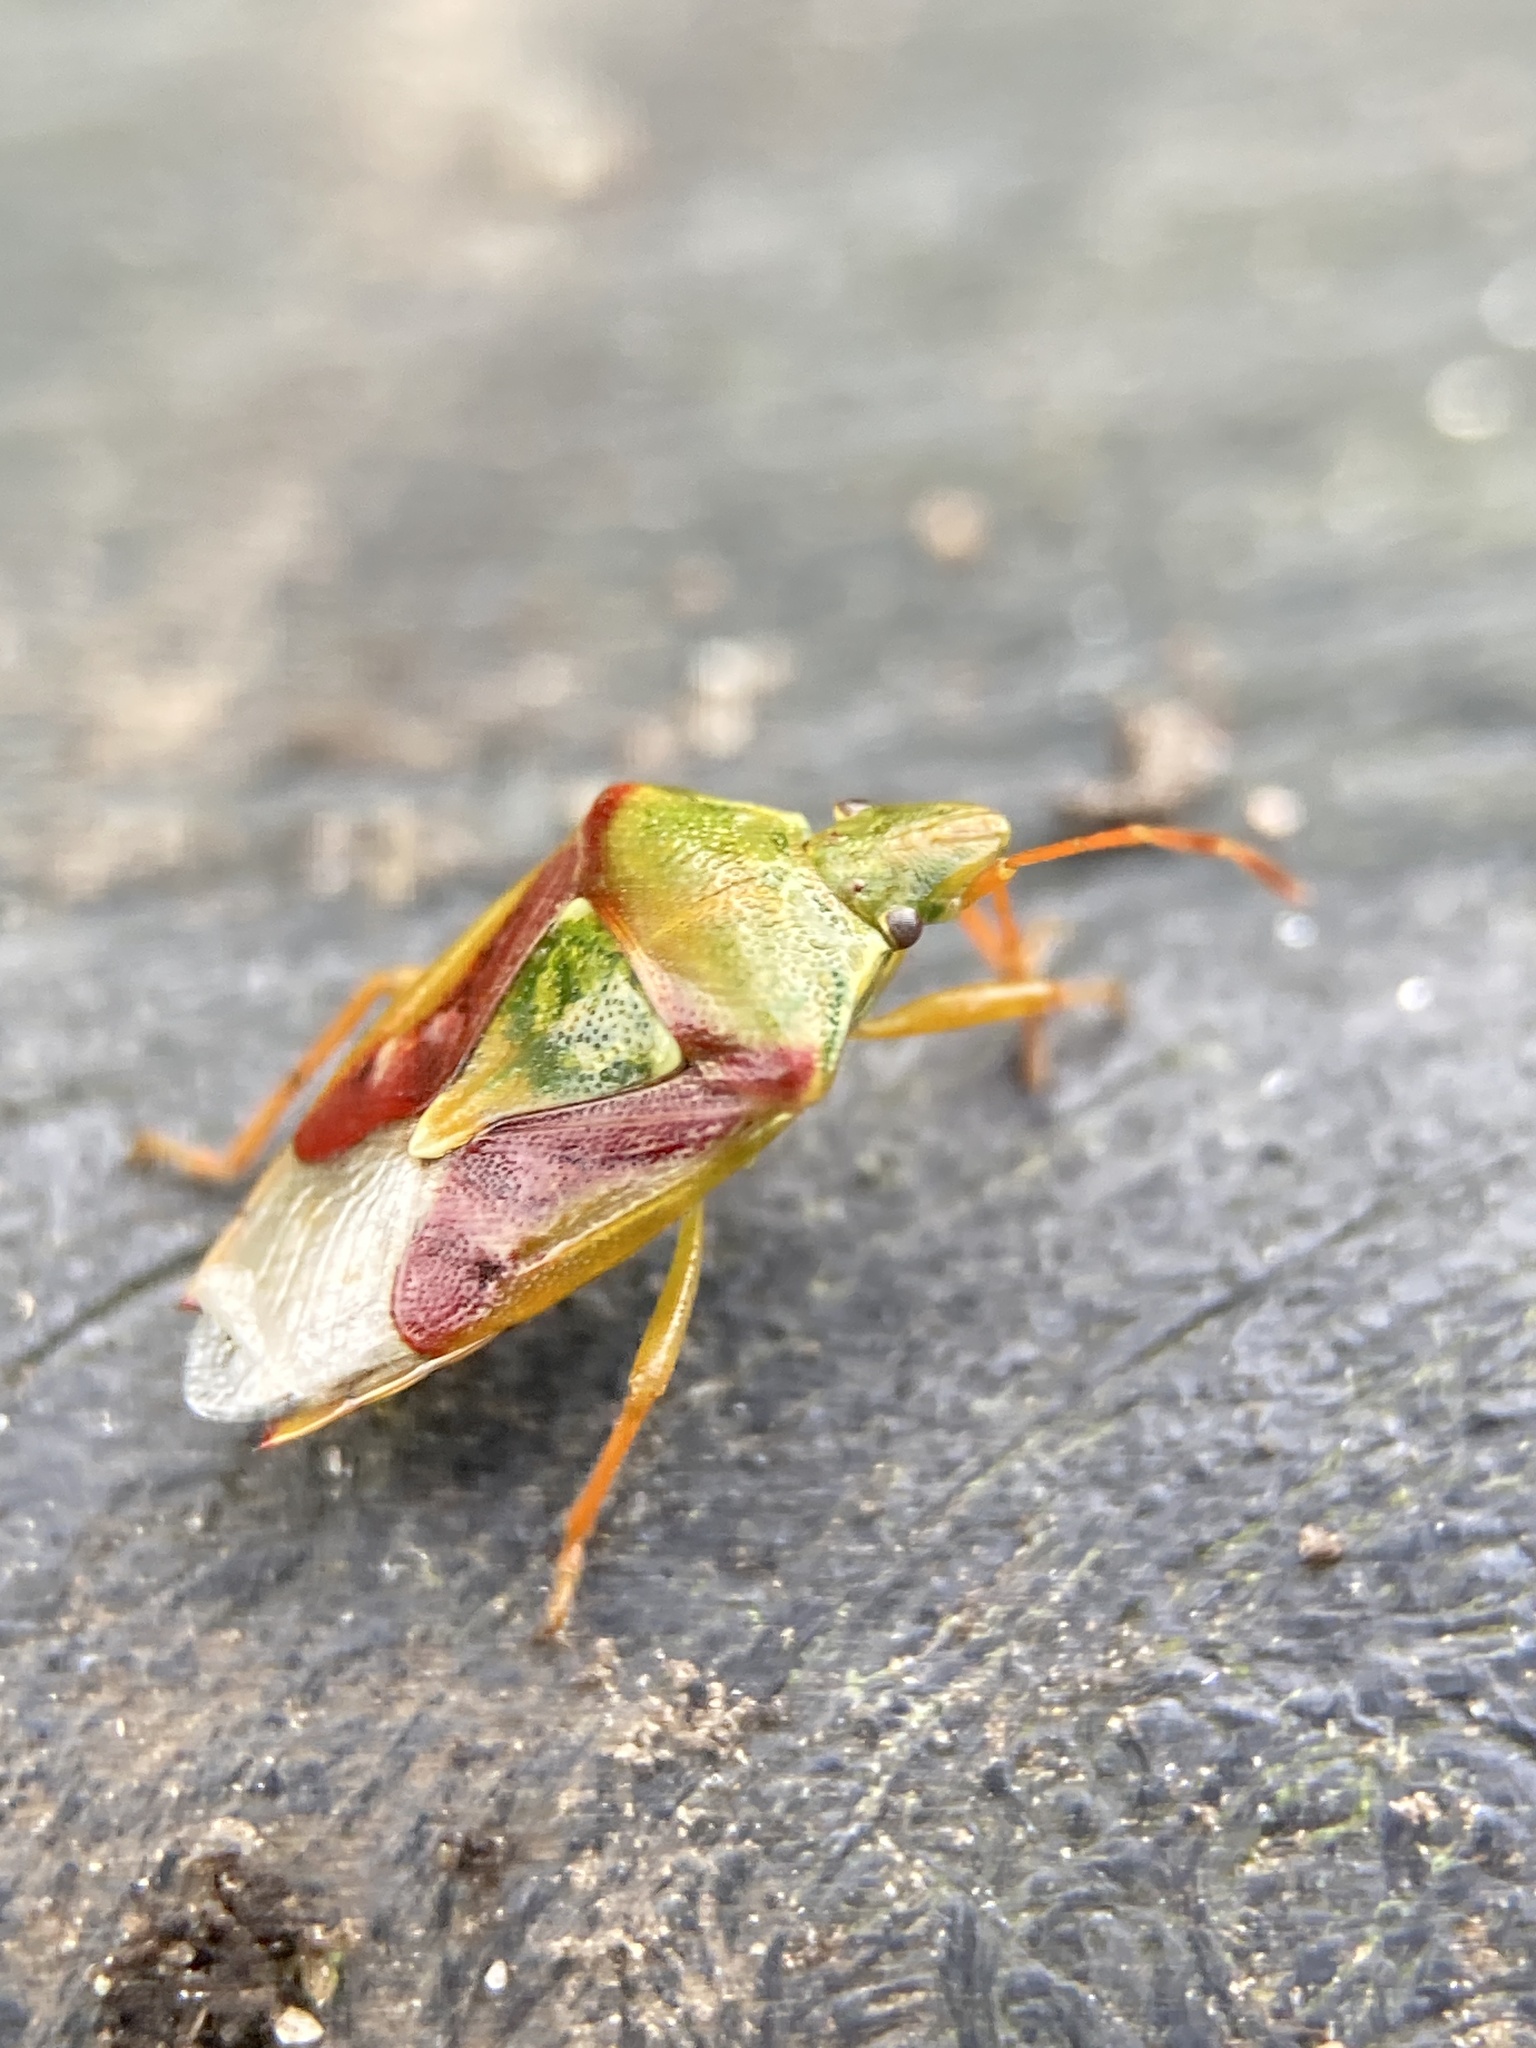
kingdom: Animalia
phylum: Arthropoda
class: Insecta
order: Hemiptera
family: Acanthosomatidae
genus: Cyphostethus
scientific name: Cyphostethus tristriatus
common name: Juniper shieldbug
